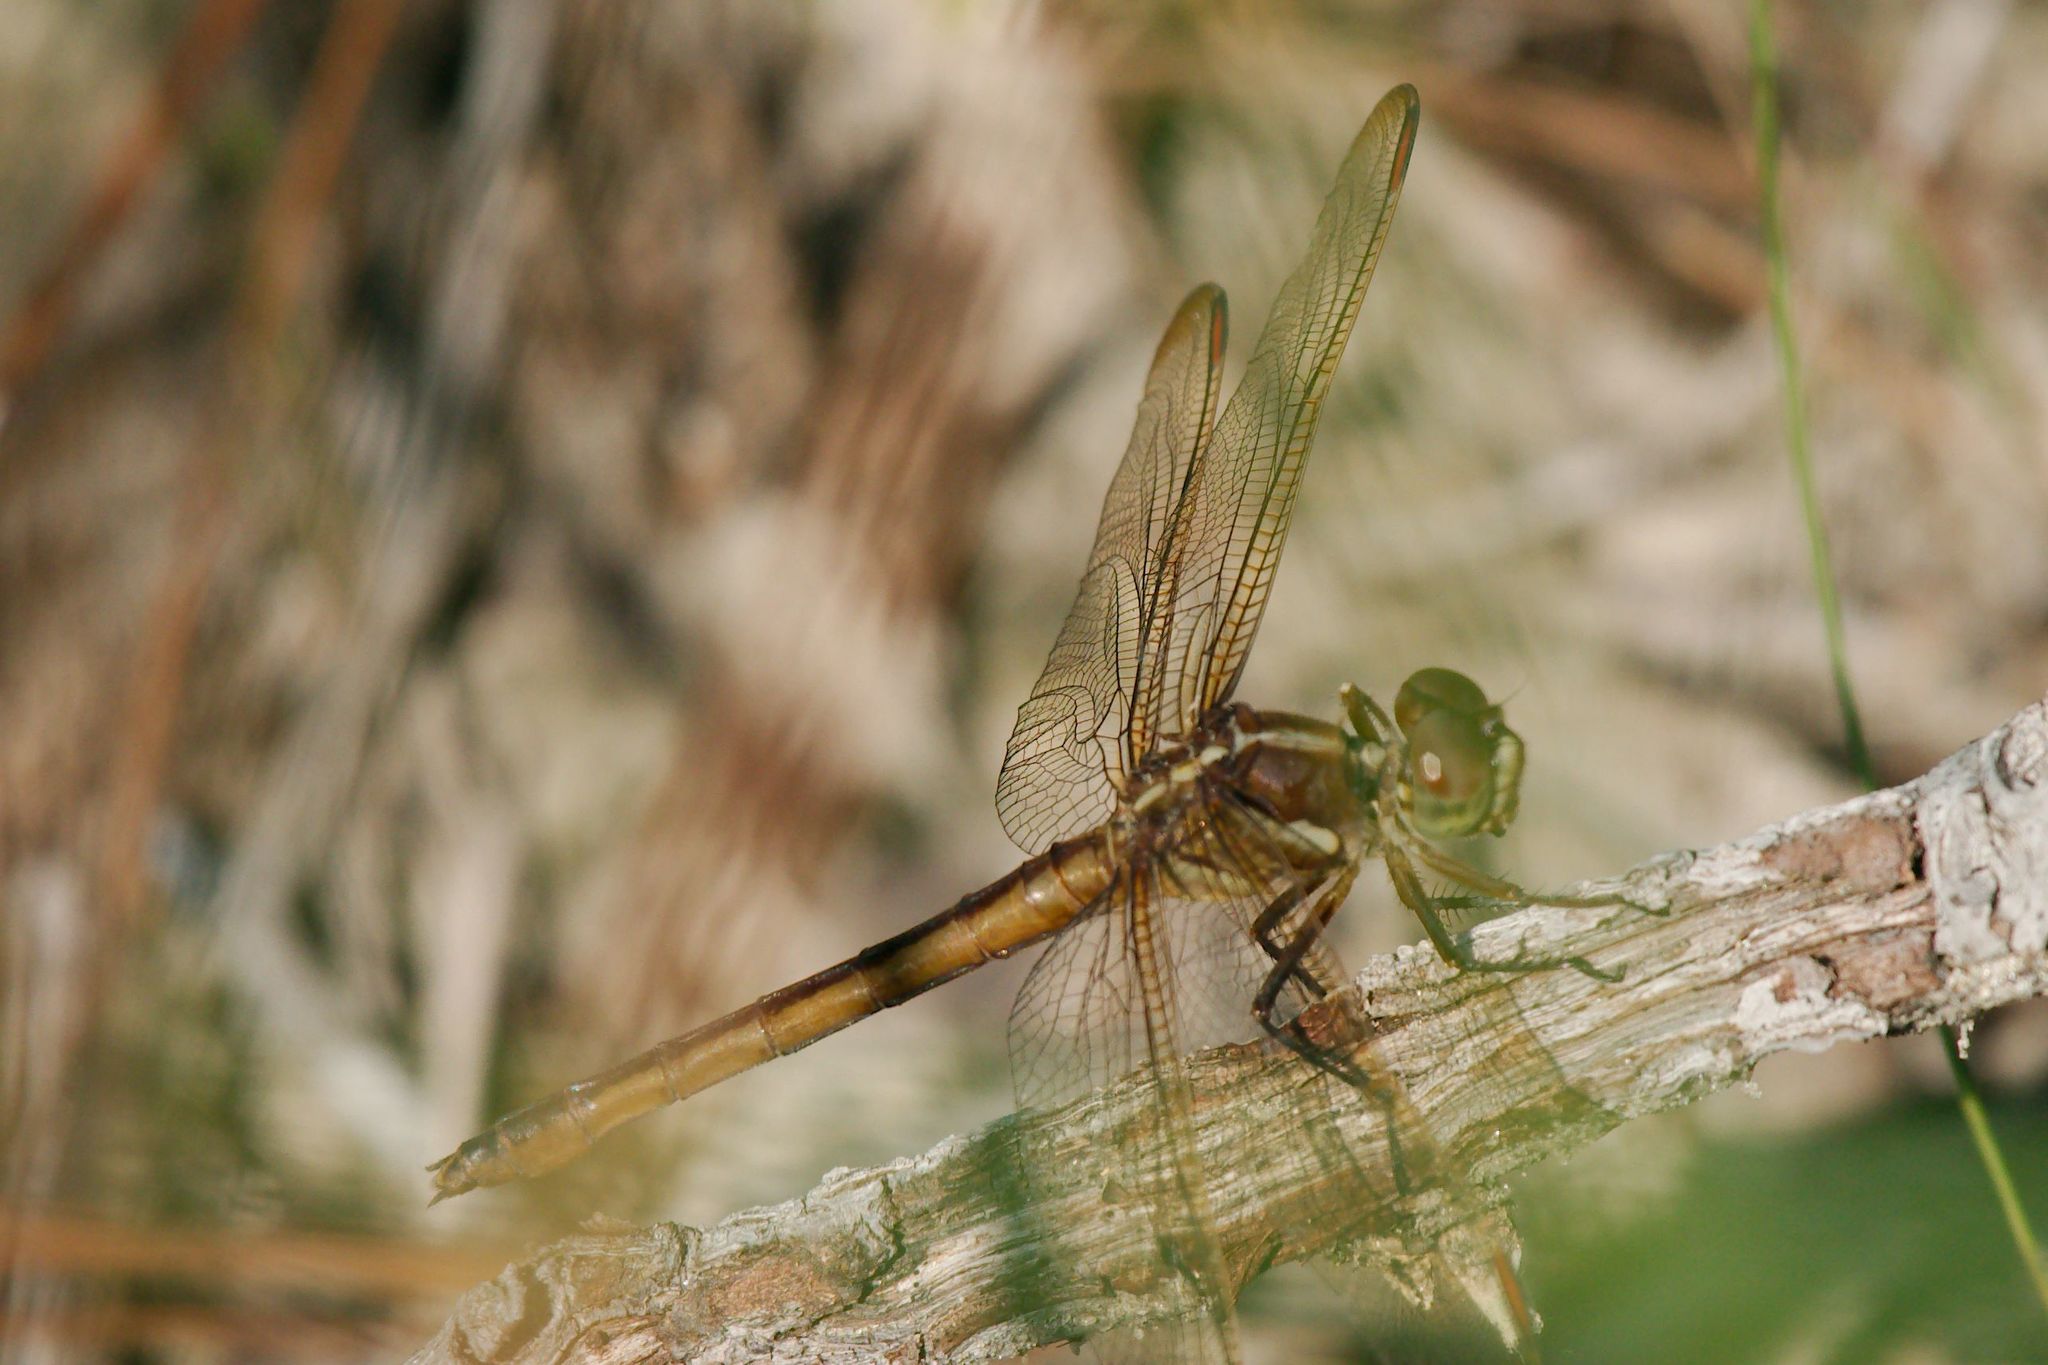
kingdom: Animalia
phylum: Arthropoda
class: Insecta
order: Odonata
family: Libellulidae
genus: Libellula
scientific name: Libellula auripennis
